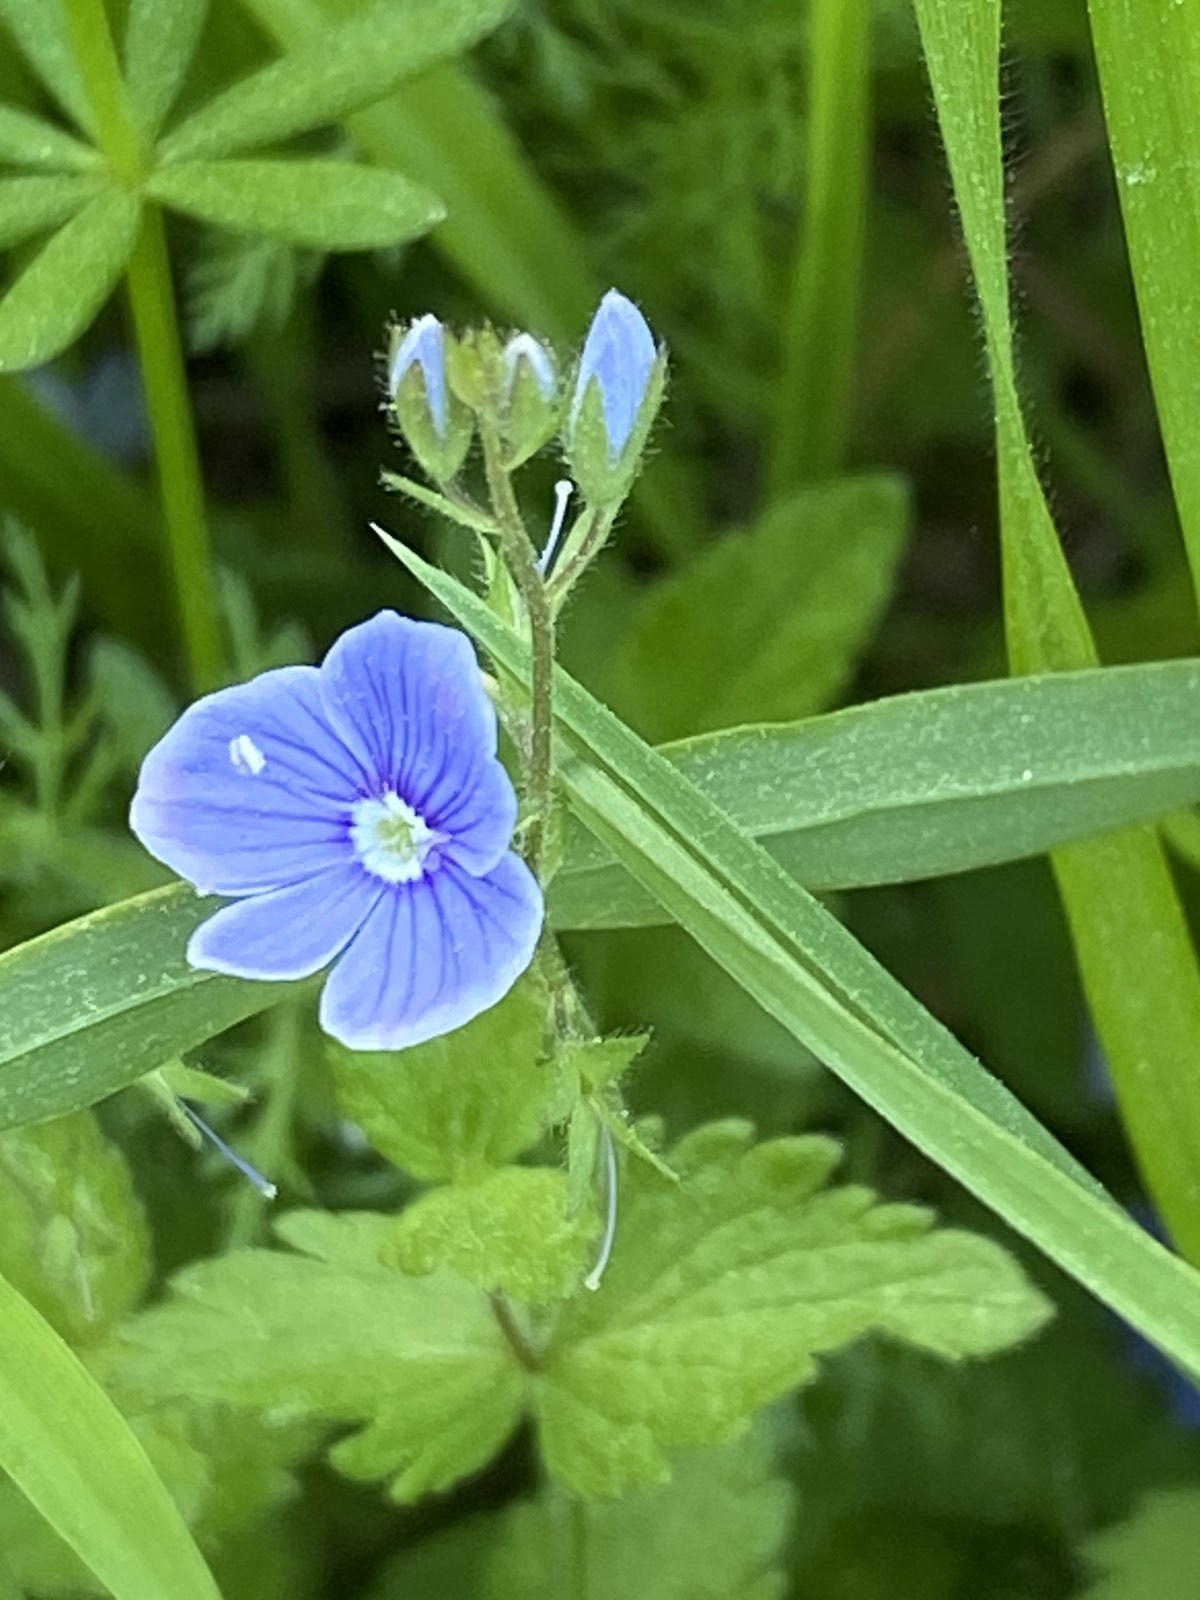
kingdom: Plantae
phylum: Tracheophyta
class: Magnoliopsida
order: Lamiales
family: Plantaginaceae
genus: Veronica
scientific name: Veronica chamaedrys
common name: Germander speedwell
